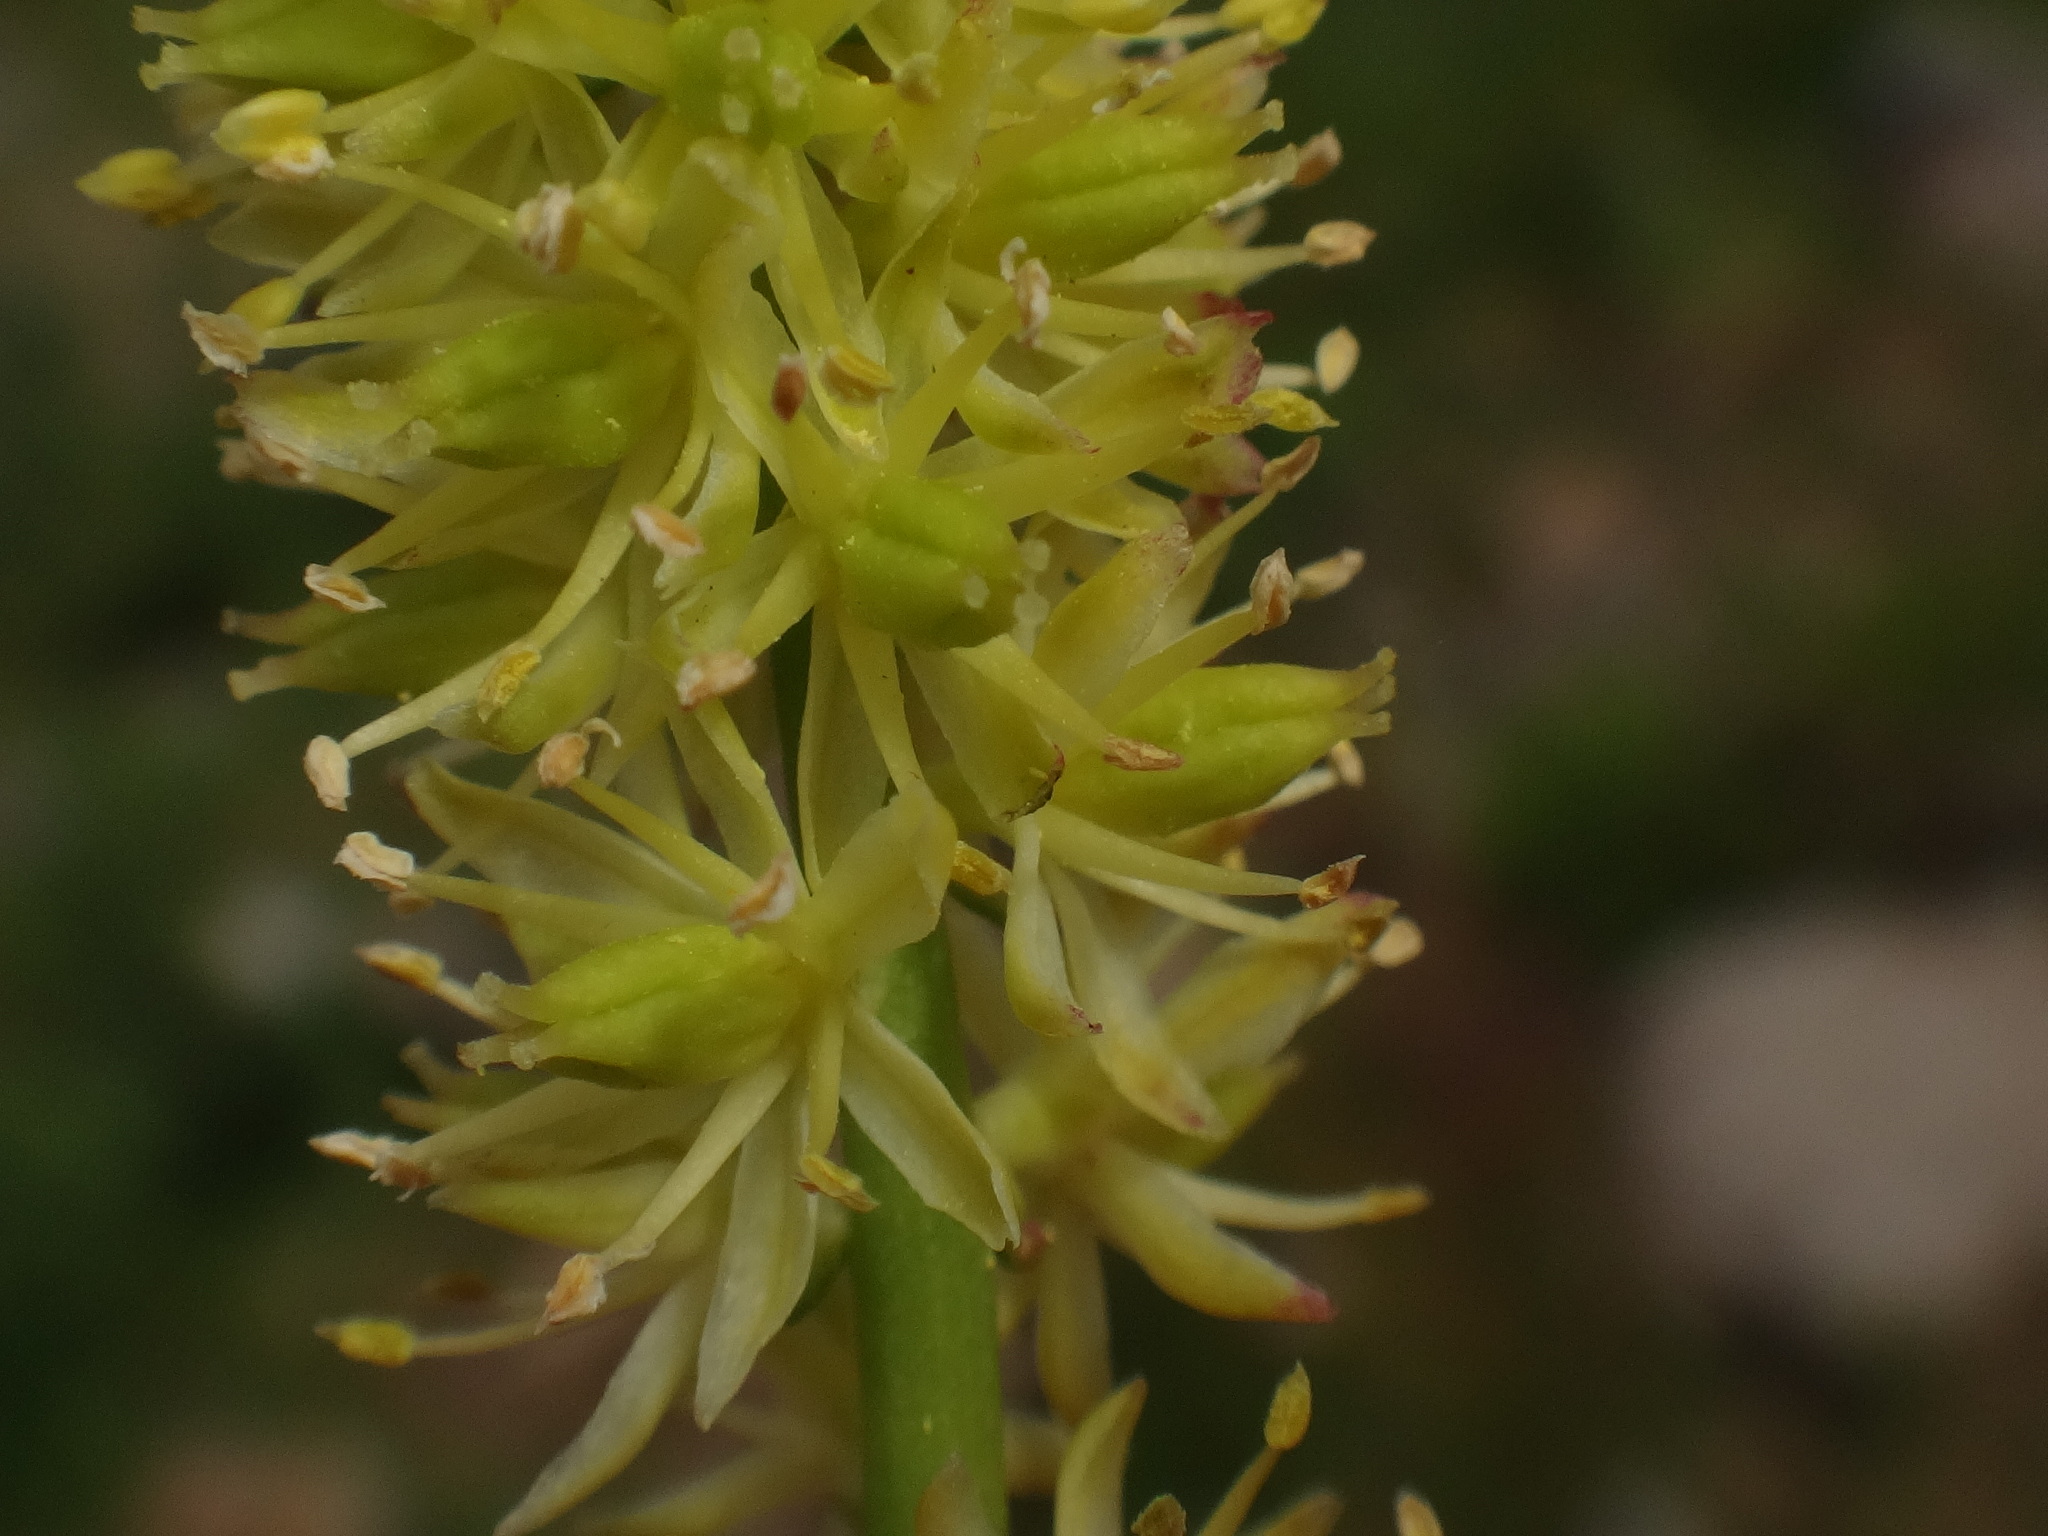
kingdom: Plantae
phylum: Tracheophyta
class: Liliopsida
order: Alismatales
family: Tofieldiaceae
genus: Tofieldia
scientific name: Tofieldia calyculata
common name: German-asphodel
